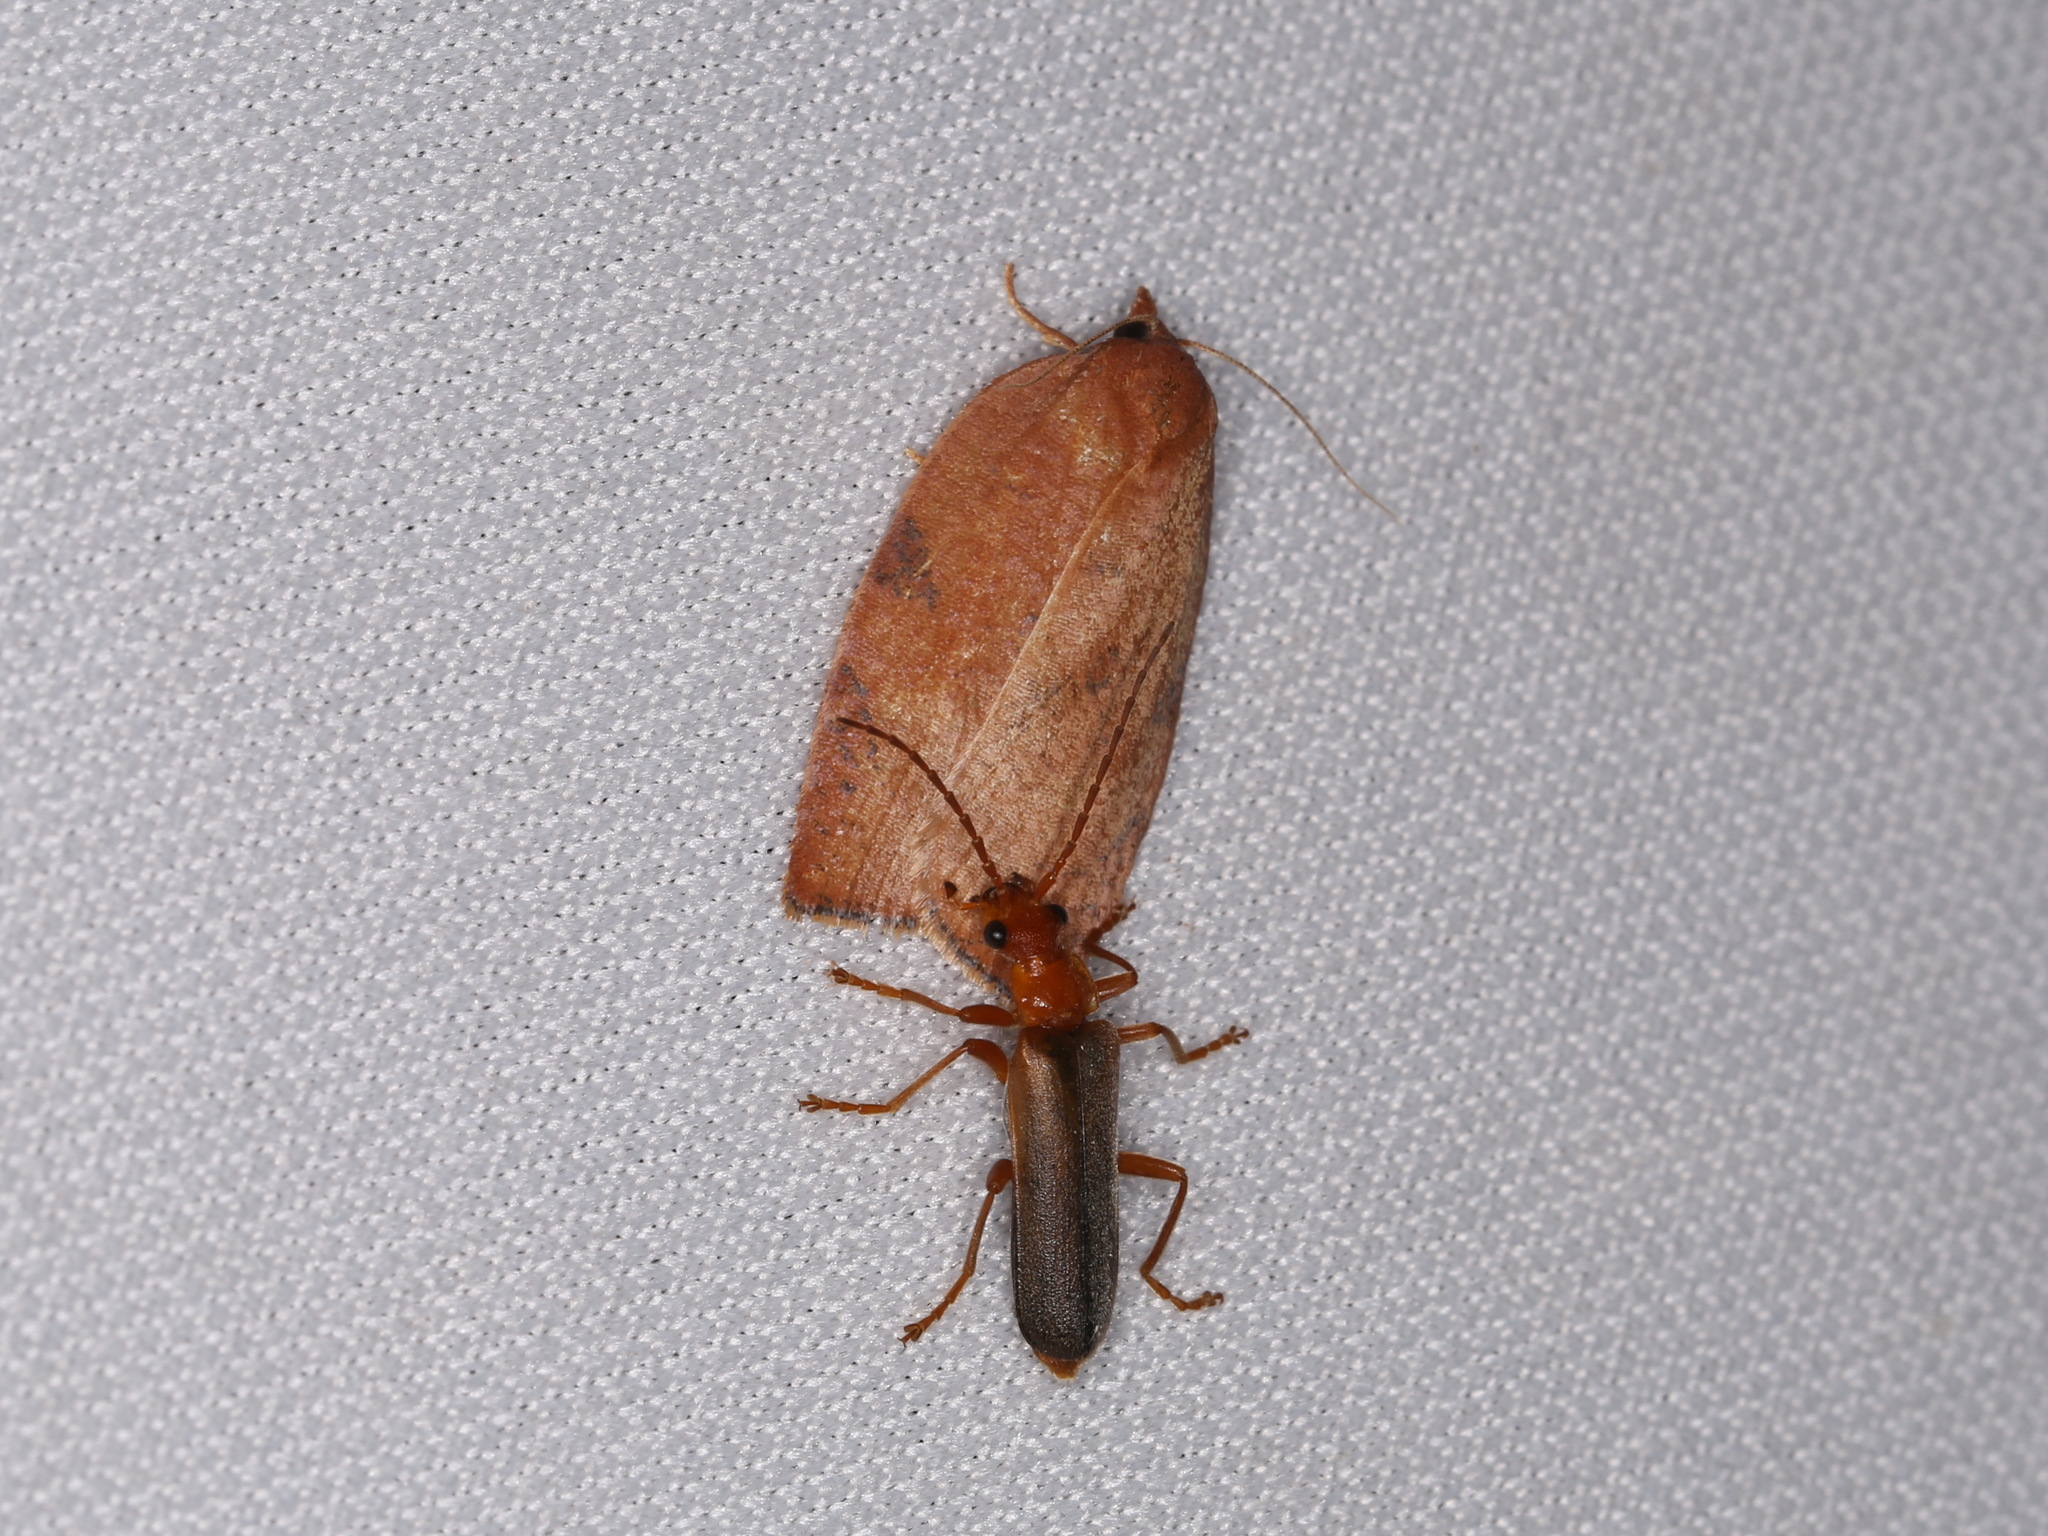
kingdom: Animalia
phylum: Arthropoda
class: Insecta
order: Lepidoptera
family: Tortricidae
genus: Amorbia
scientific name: Amorbia cuneanum
